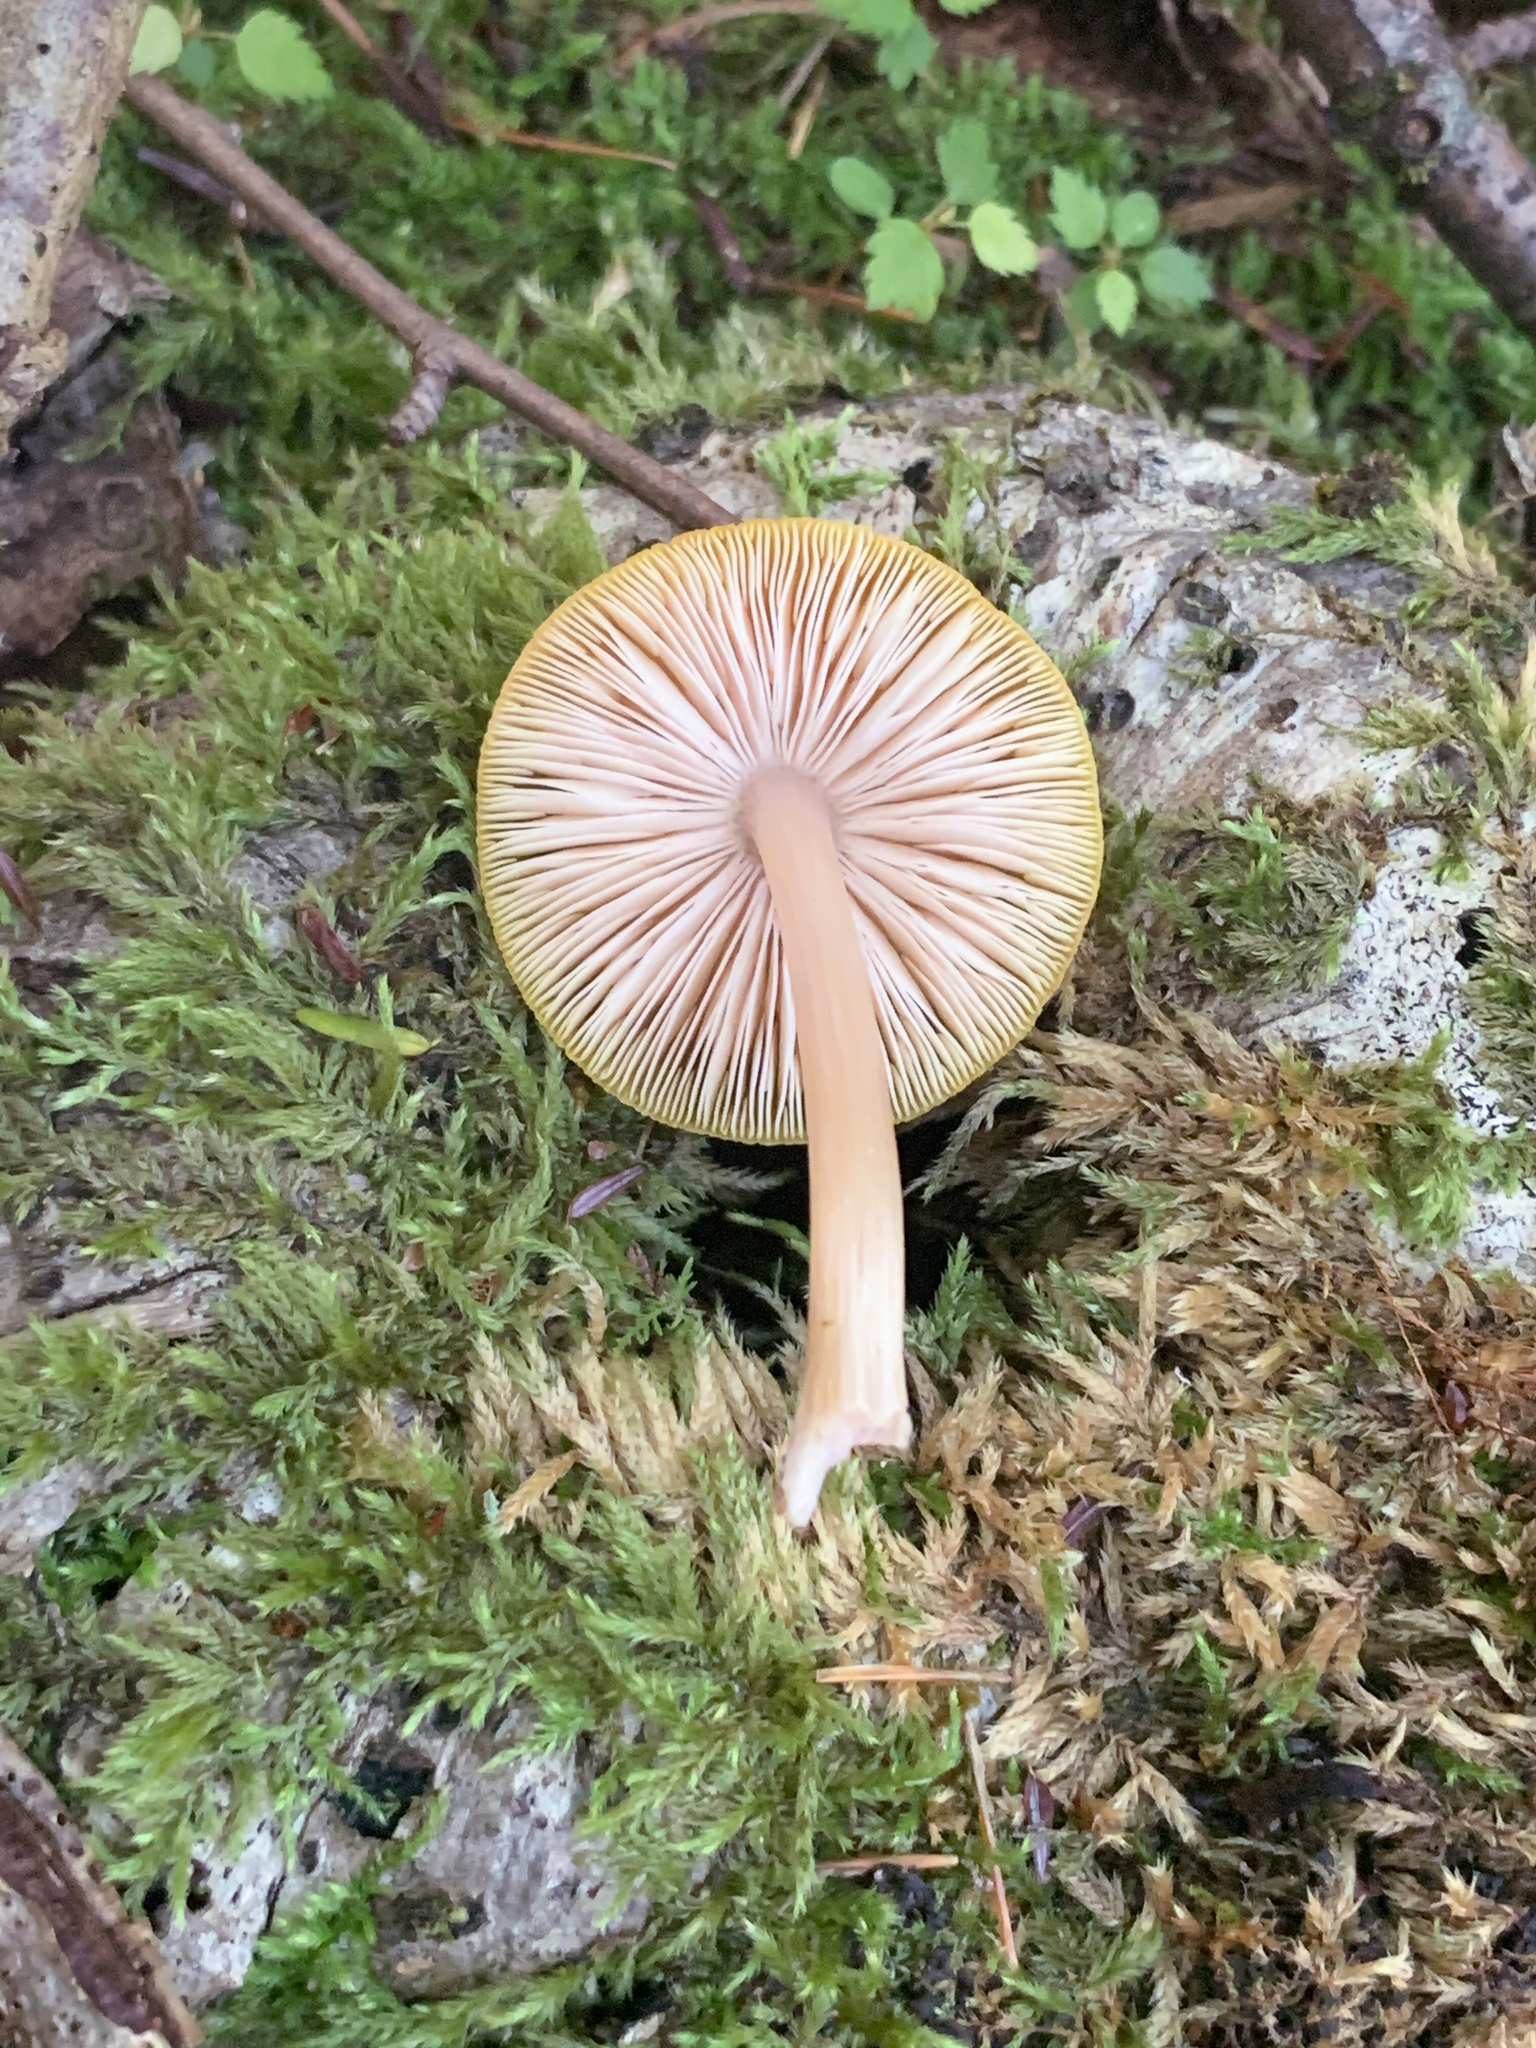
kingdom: Fungi
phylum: Basidiomycota
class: Agaricomycetes
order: Agaricales
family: Pluteaceae
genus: Pluteus
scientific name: Pluteus flavofuligineus
